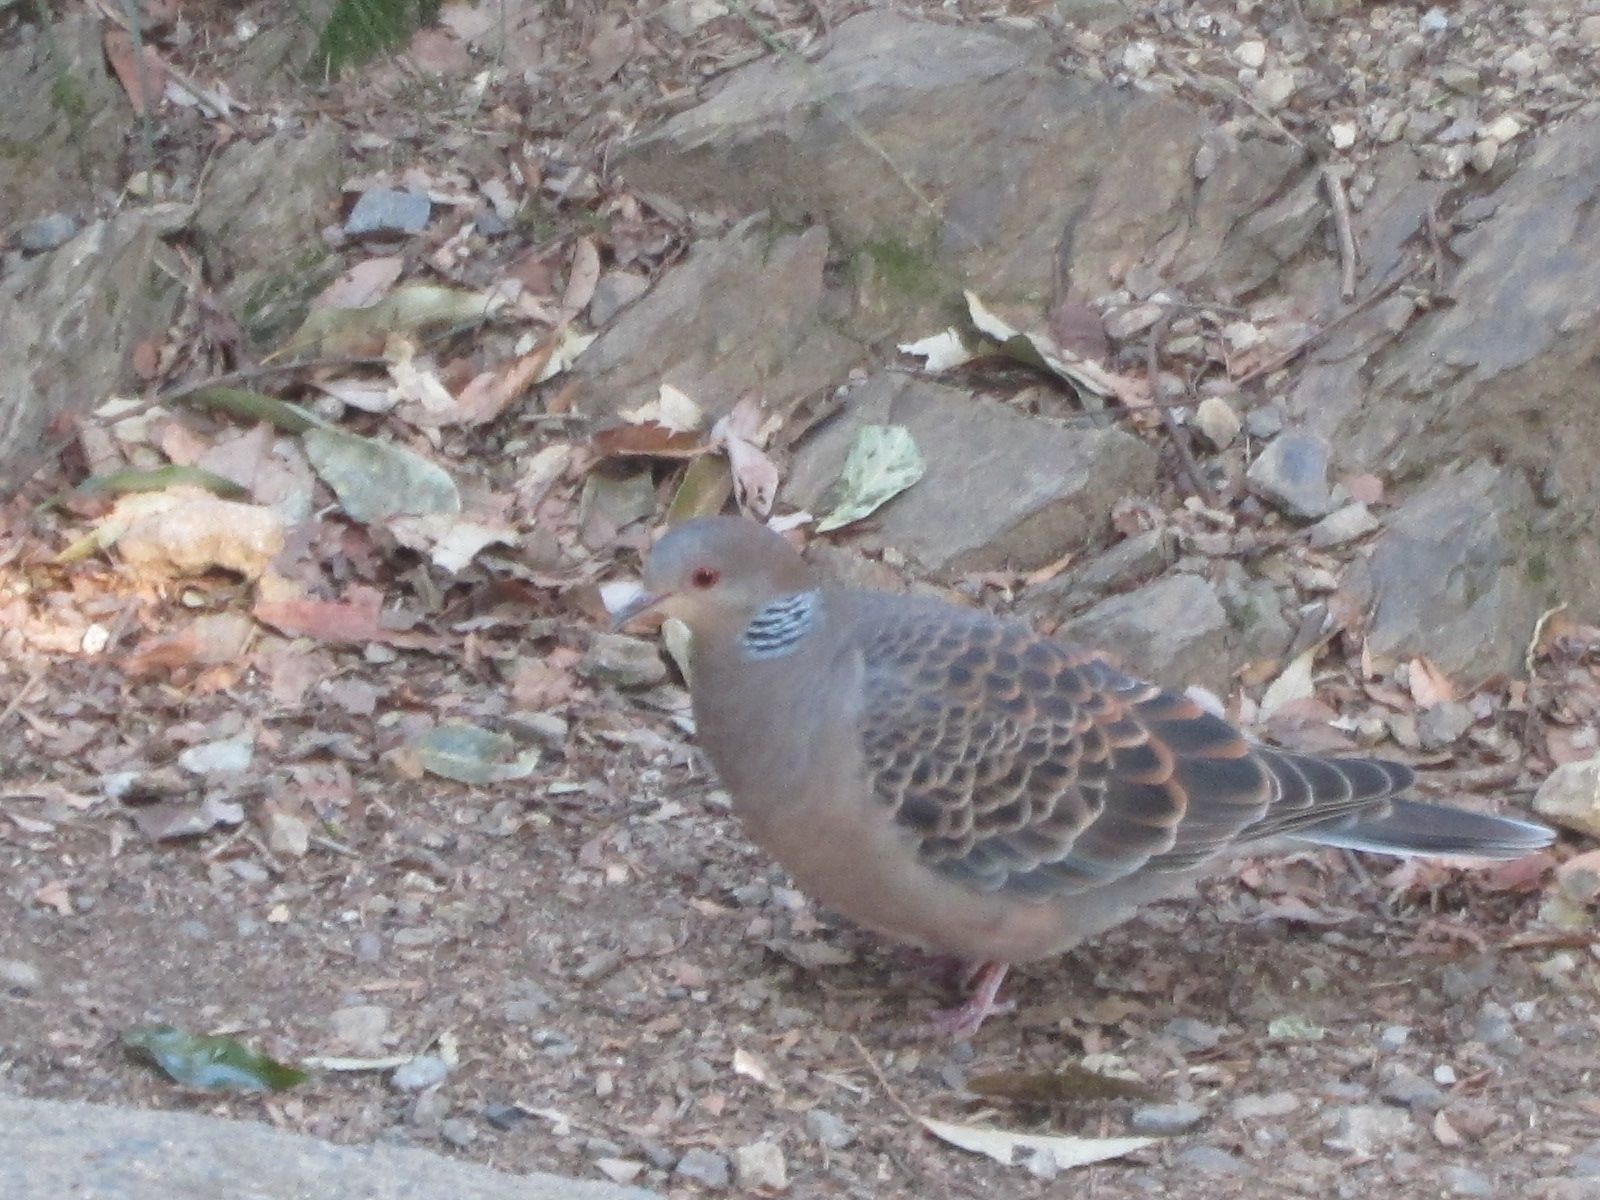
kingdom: Animalia
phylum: Chordata
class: Aves
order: Columbiformes
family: Columbidae
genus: Streptopelia
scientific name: Streptopelia orientalis
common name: Oriental turtle dove
